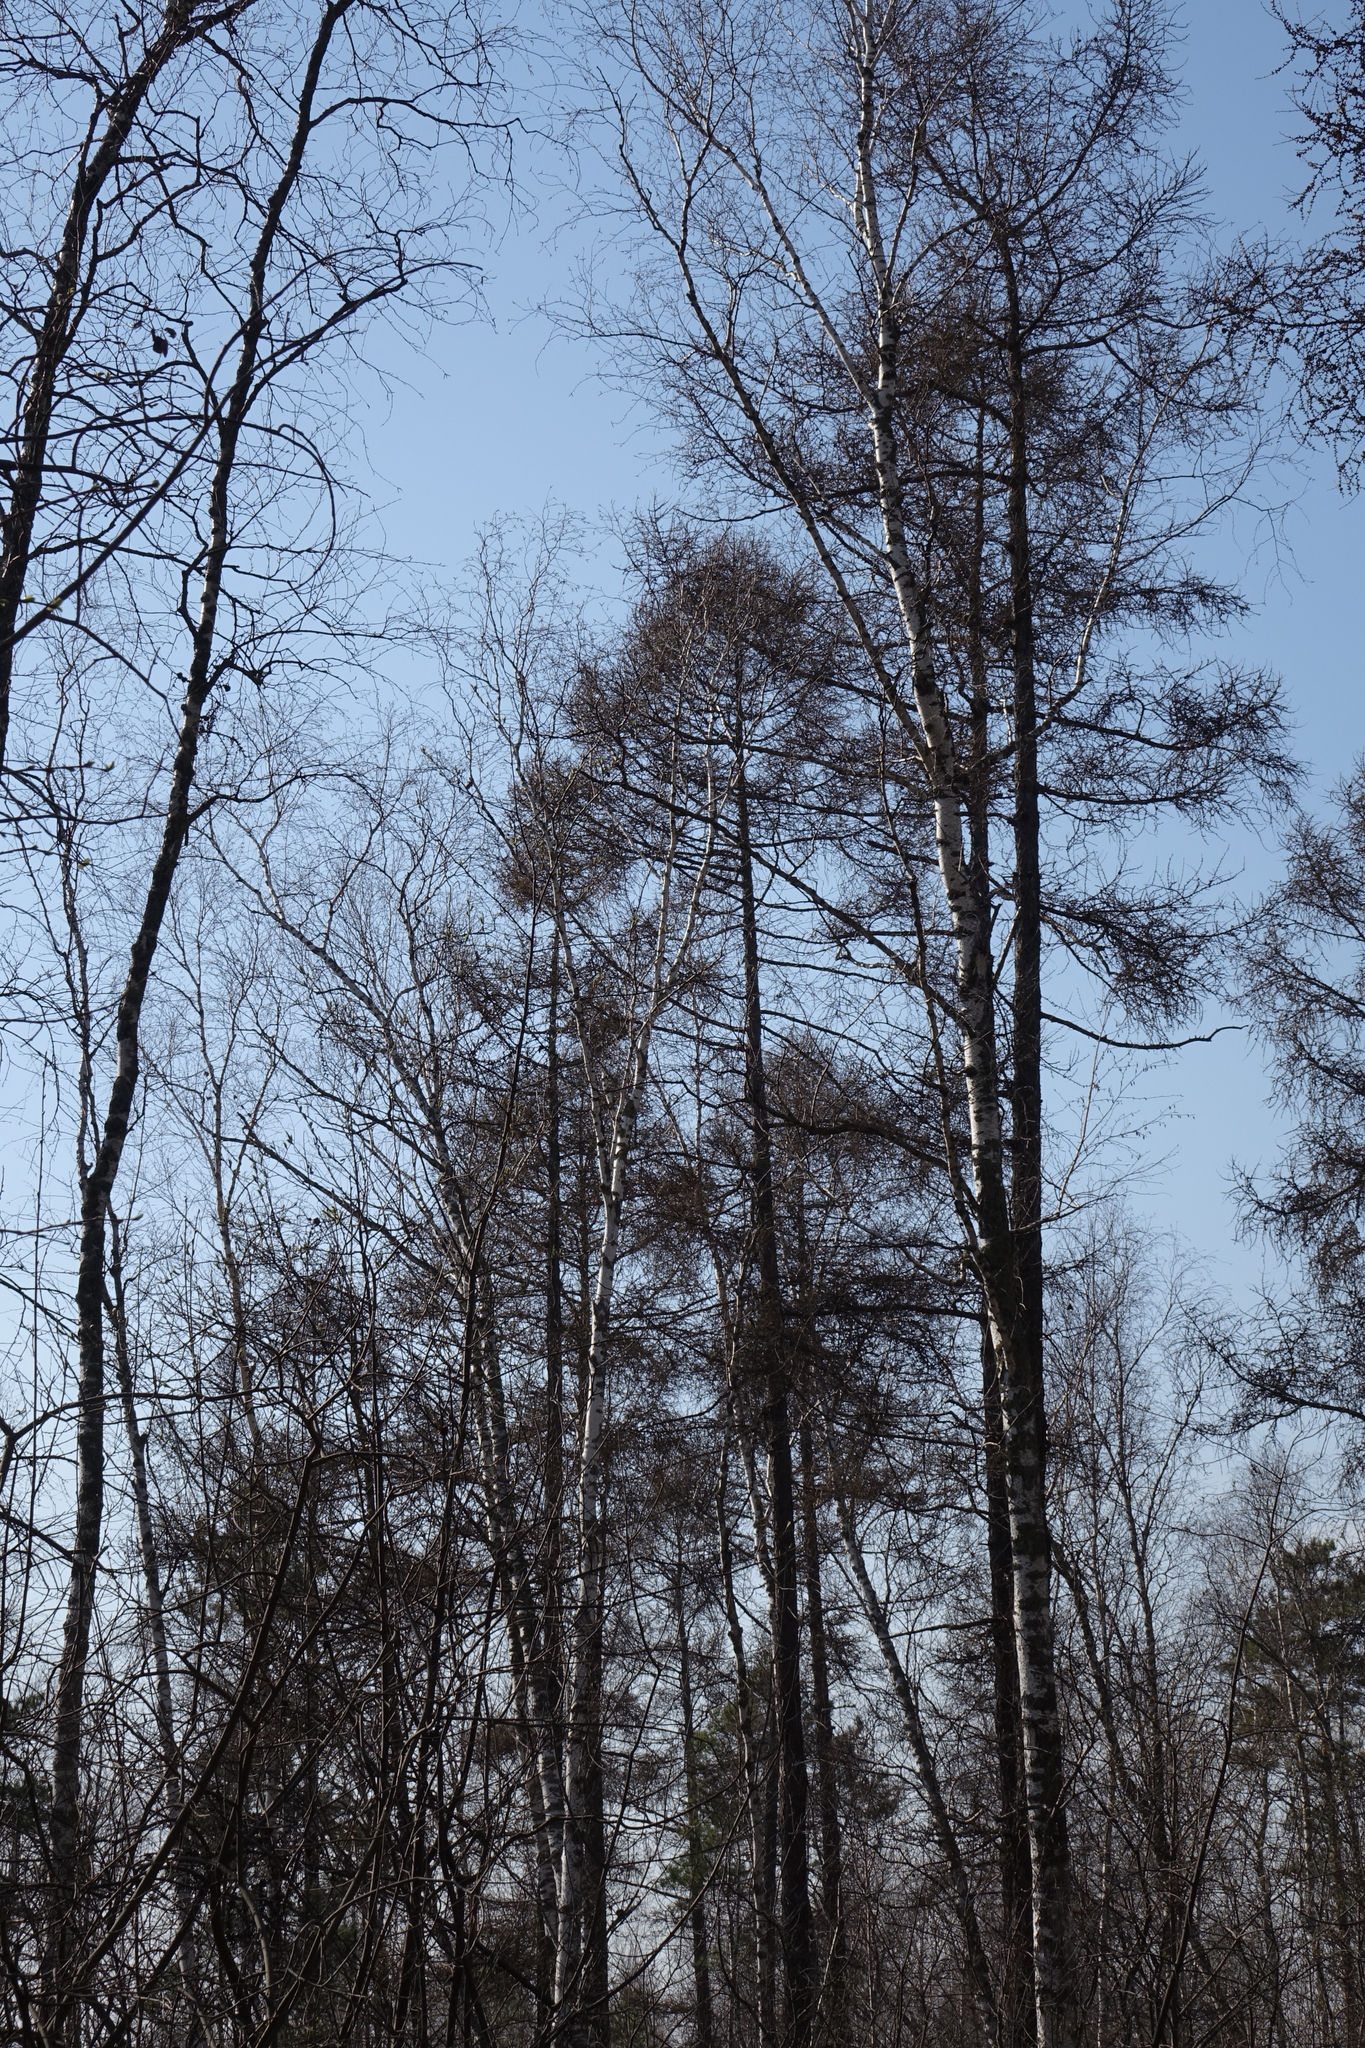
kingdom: Plantae
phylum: Tracheophyta
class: Pinopsida
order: Pinales
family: Pinaceae
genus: Larix
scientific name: Larix sibirica
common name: Siberian larch
